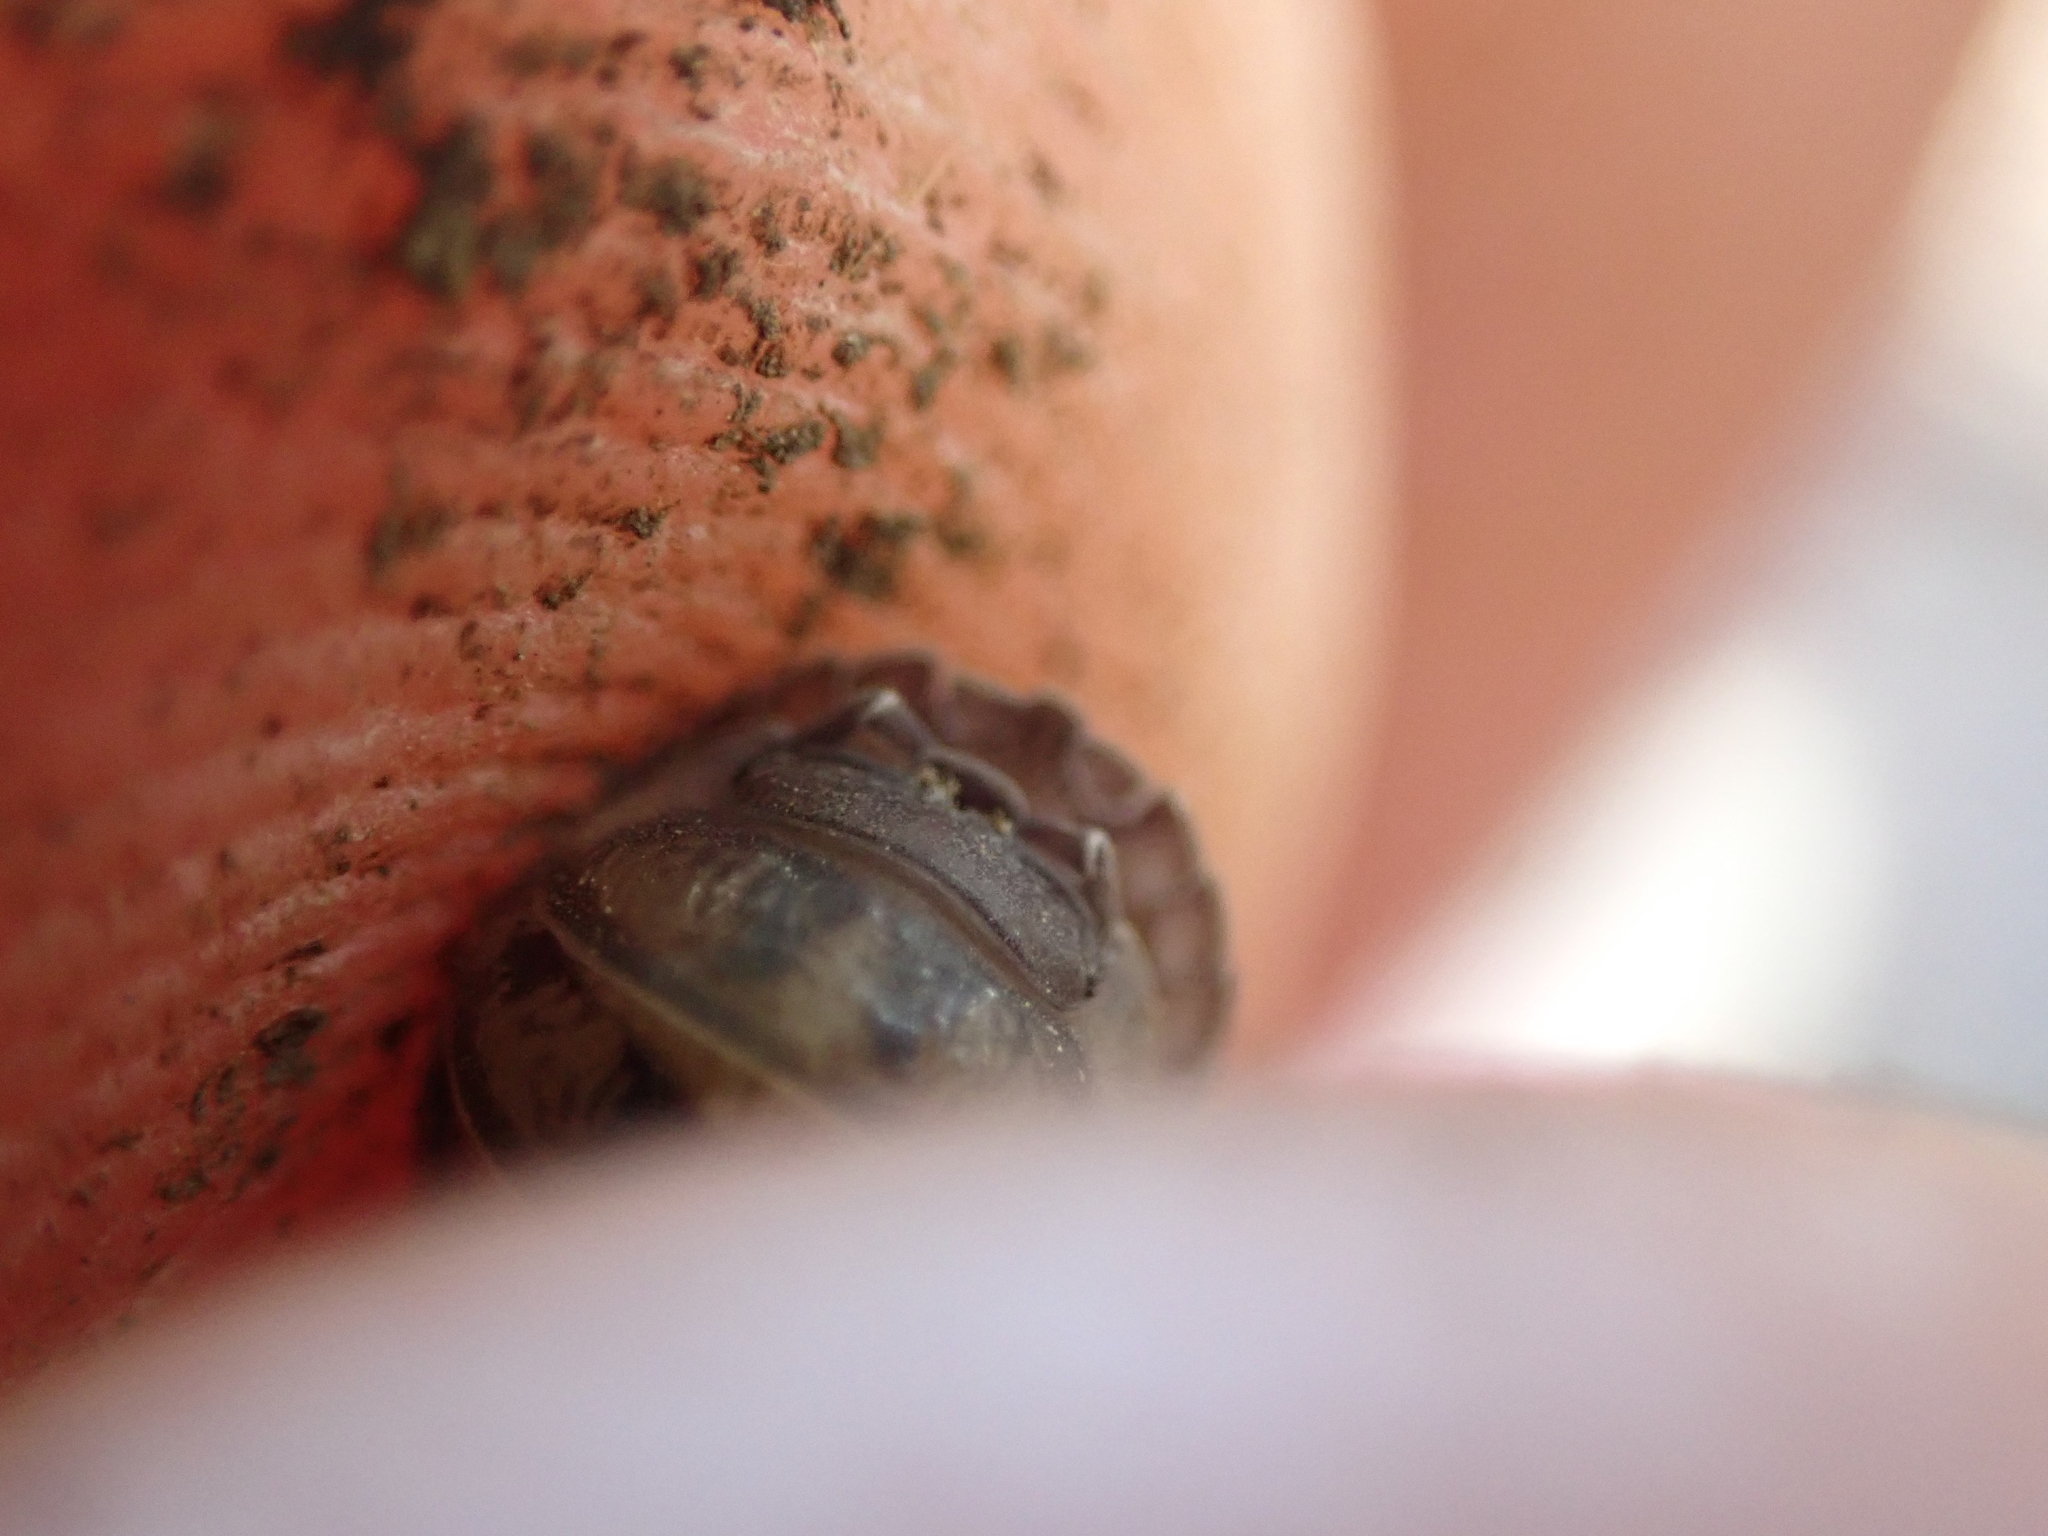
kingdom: Animalia
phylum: Arthropoda
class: Malacostraca
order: Isopoda
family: Armadillidiidae
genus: Armadillidium
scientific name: Armadillidium nasatum
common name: Isopod
